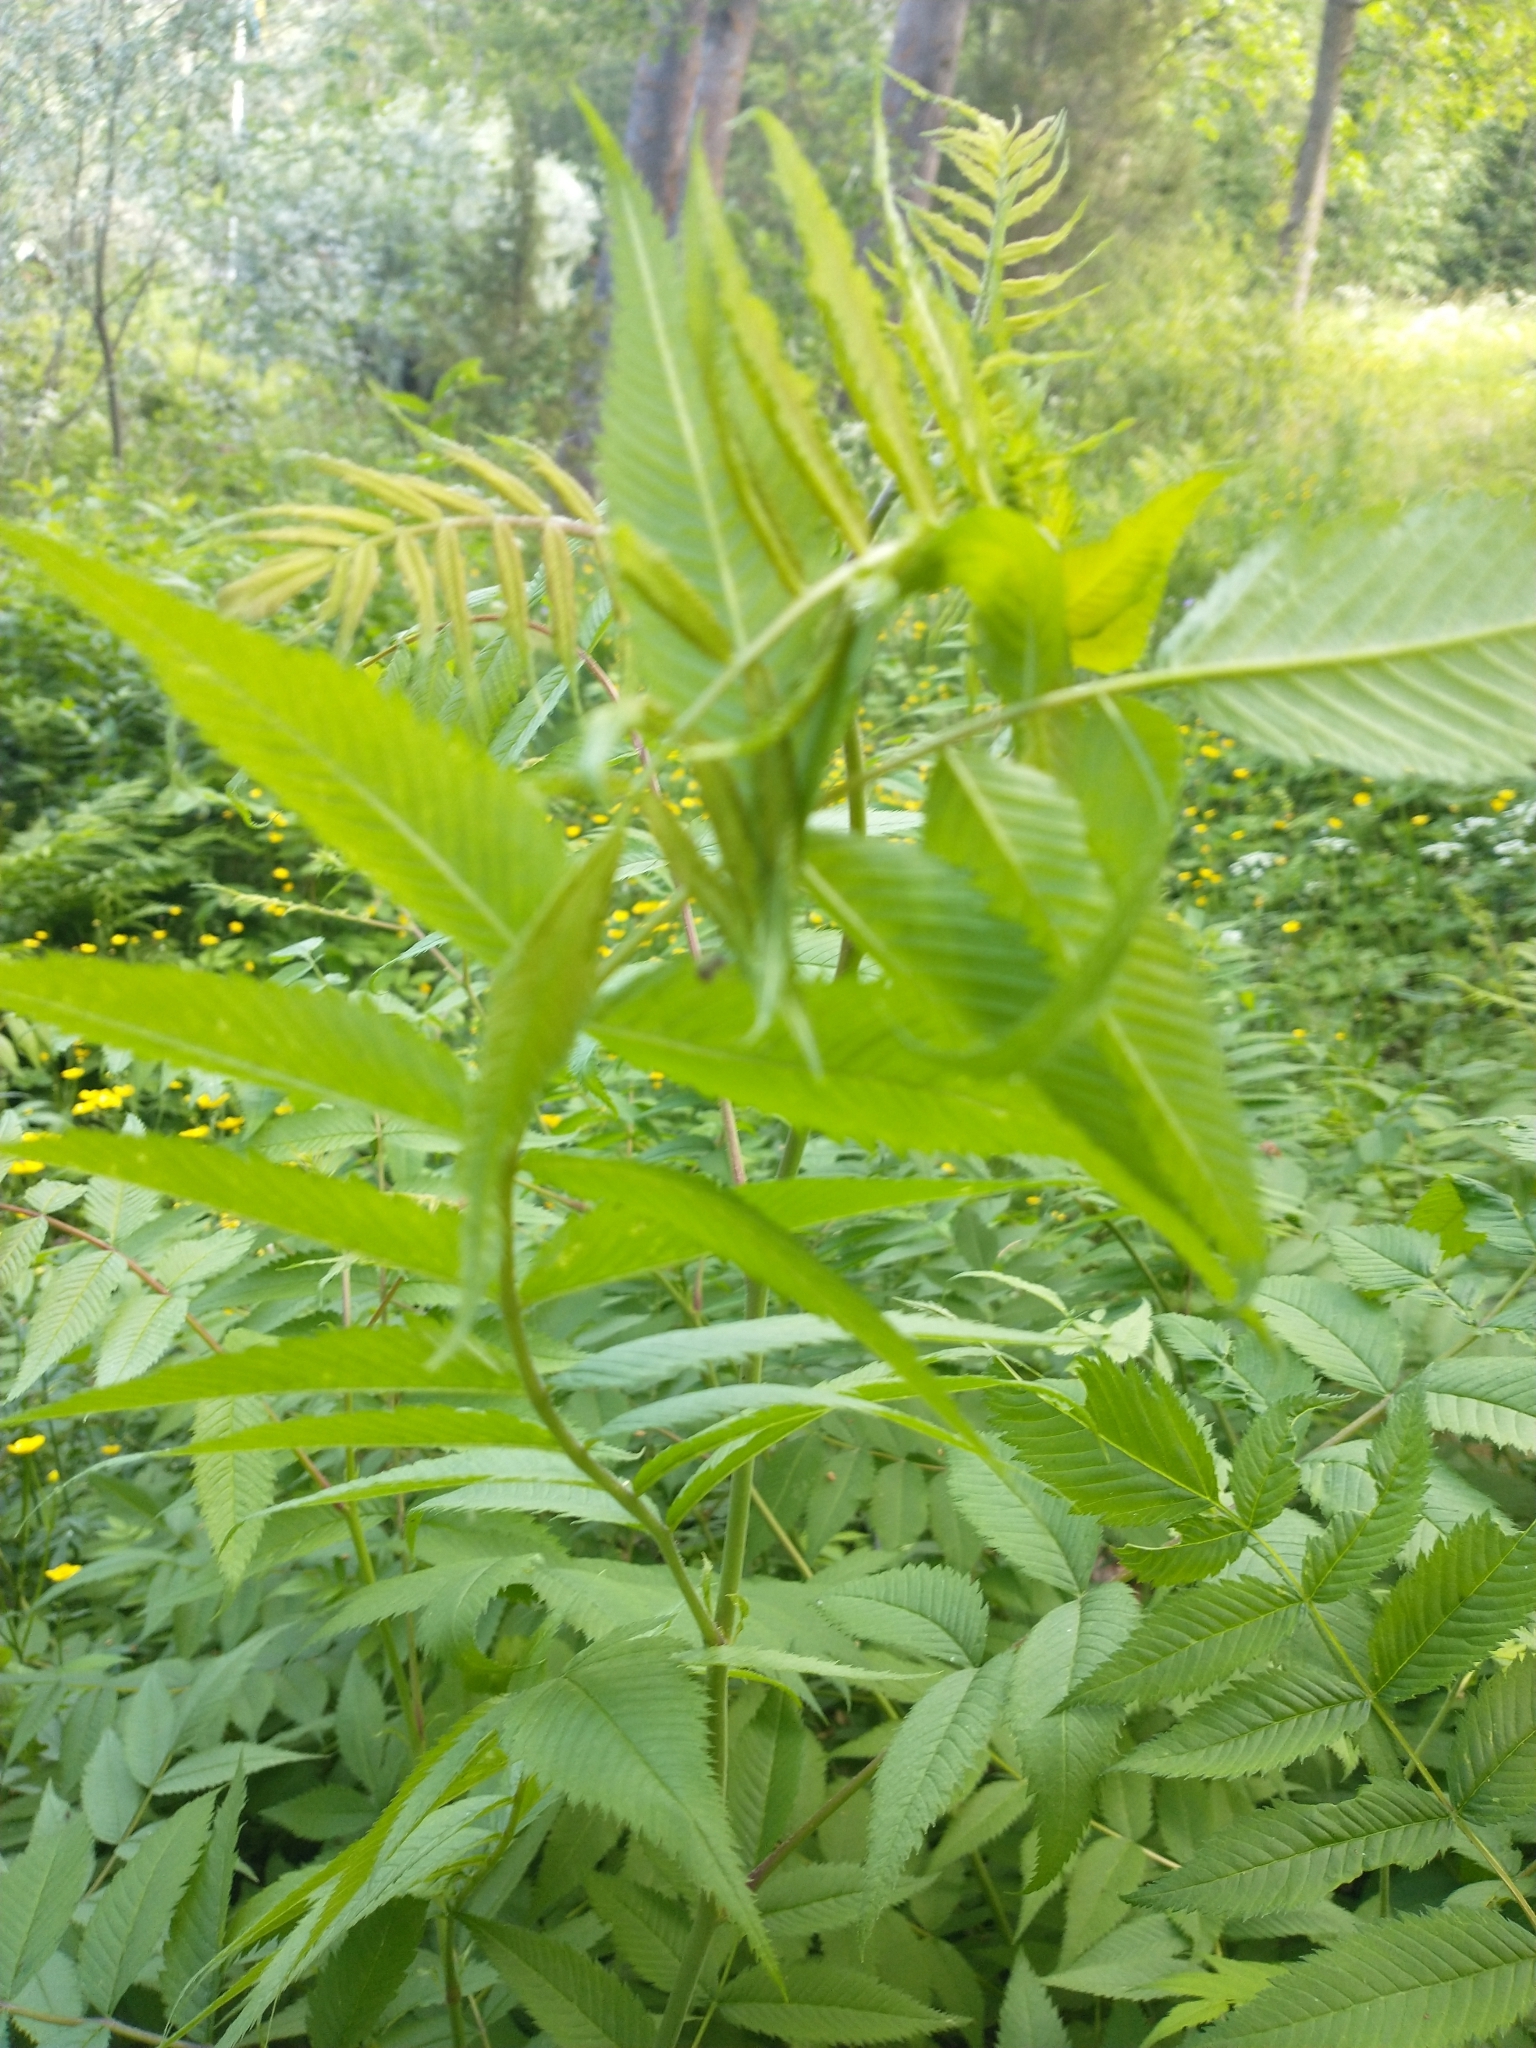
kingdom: Plantae
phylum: Tracheophyta
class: Magnoliopsida
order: Rosales
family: Rosaceae
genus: Sorbaria
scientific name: Sorbaria sorbifolia
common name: False spiraea
